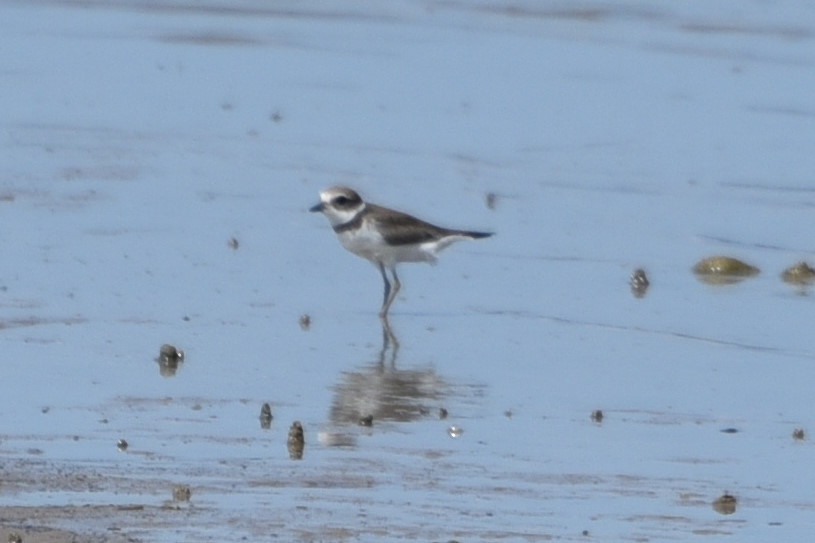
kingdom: Animalia
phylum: Chordata
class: Aves
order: Charadriiformes
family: Charadriidae
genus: Charadrius
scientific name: Charadrius semipalmatus
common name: Semipalmated plover
